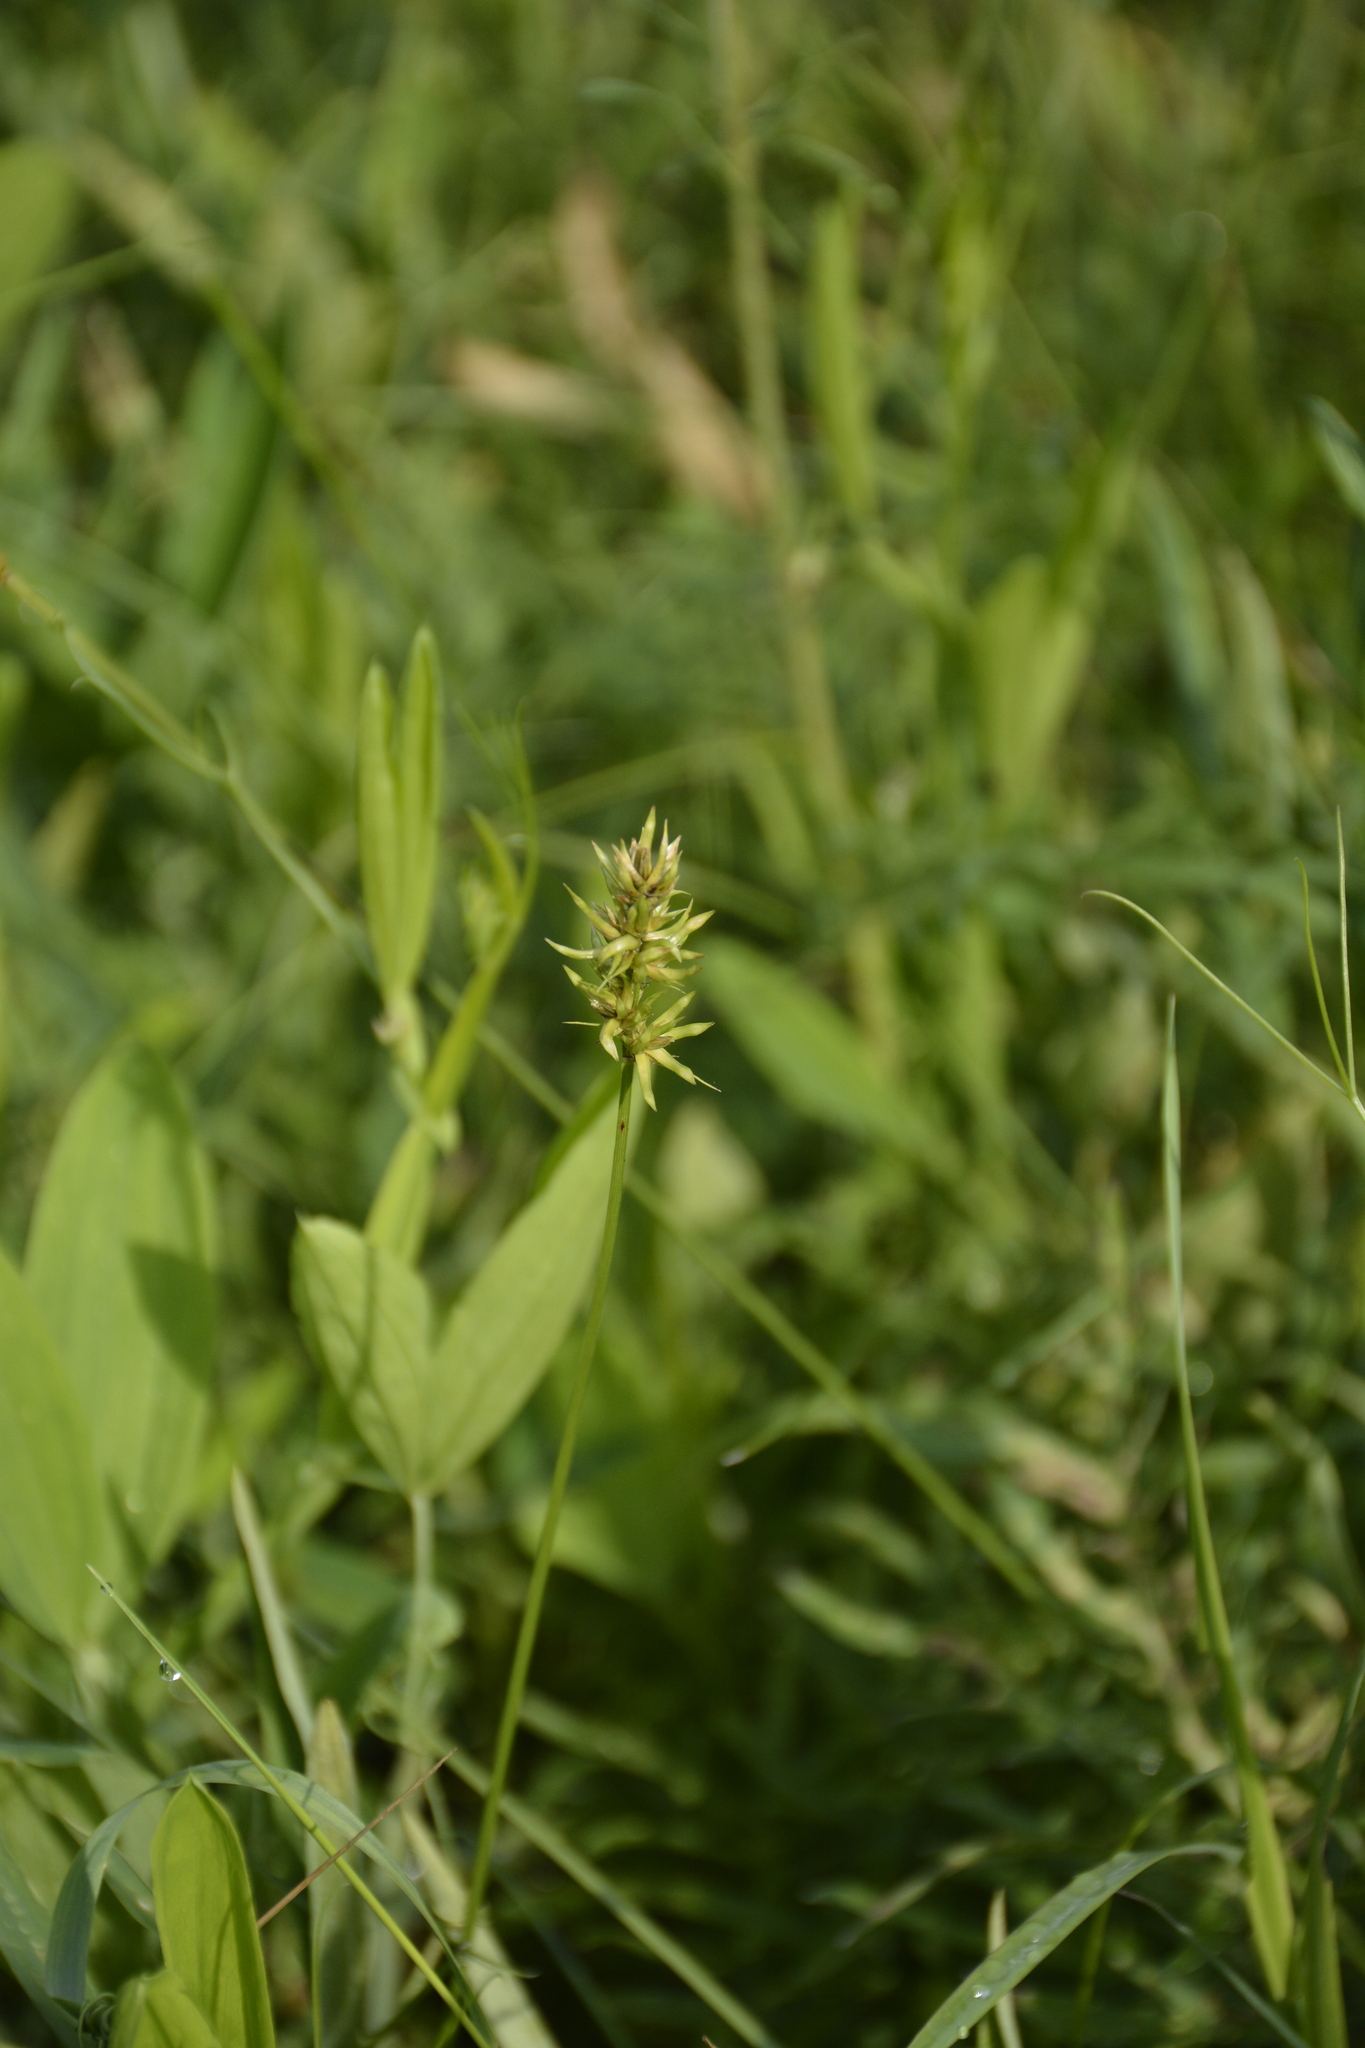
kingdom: Plantae
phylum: Tracheophyta
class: Liliopsida
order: Poales
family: Cyperaceae
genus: Carex
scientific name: Carex spicata
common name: Spiked sedge
